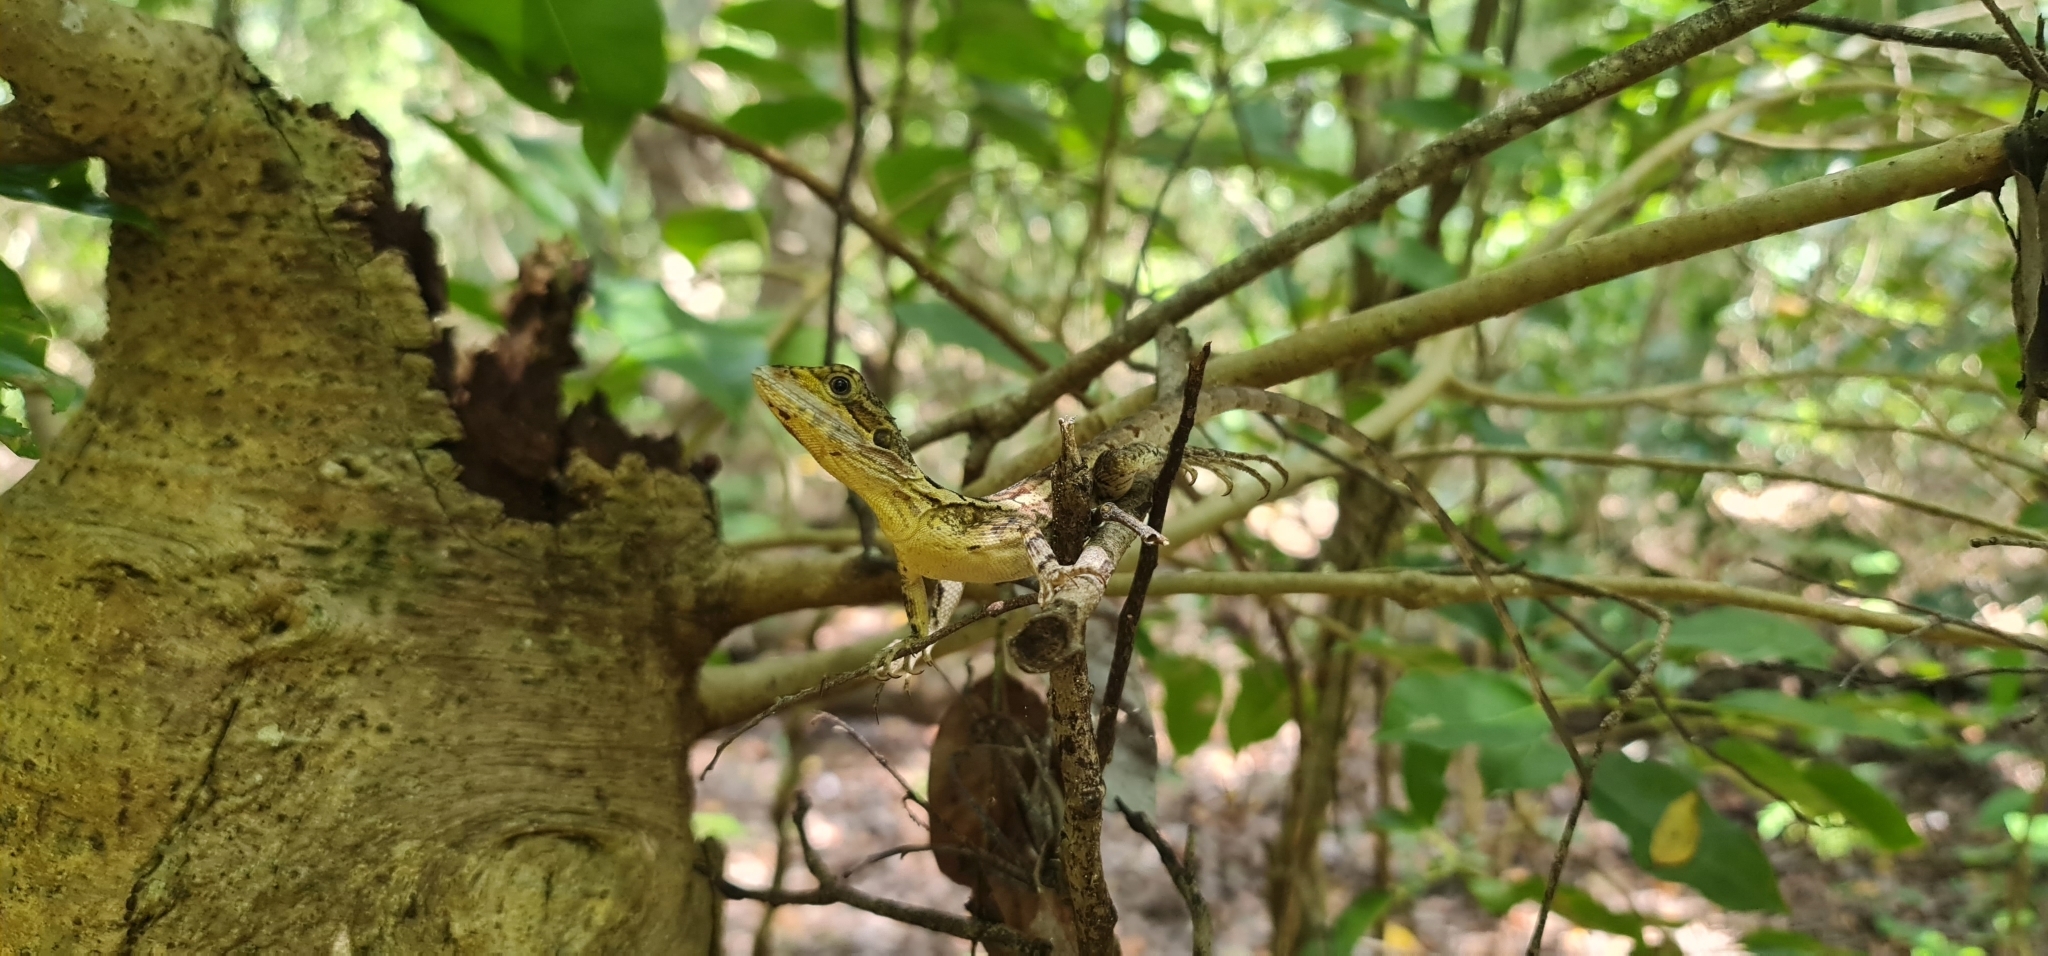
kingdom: Animalia
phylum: Chordata
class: Squamata
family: Agamidae
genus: Tropicagama
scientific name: Tropicagama temporalis
